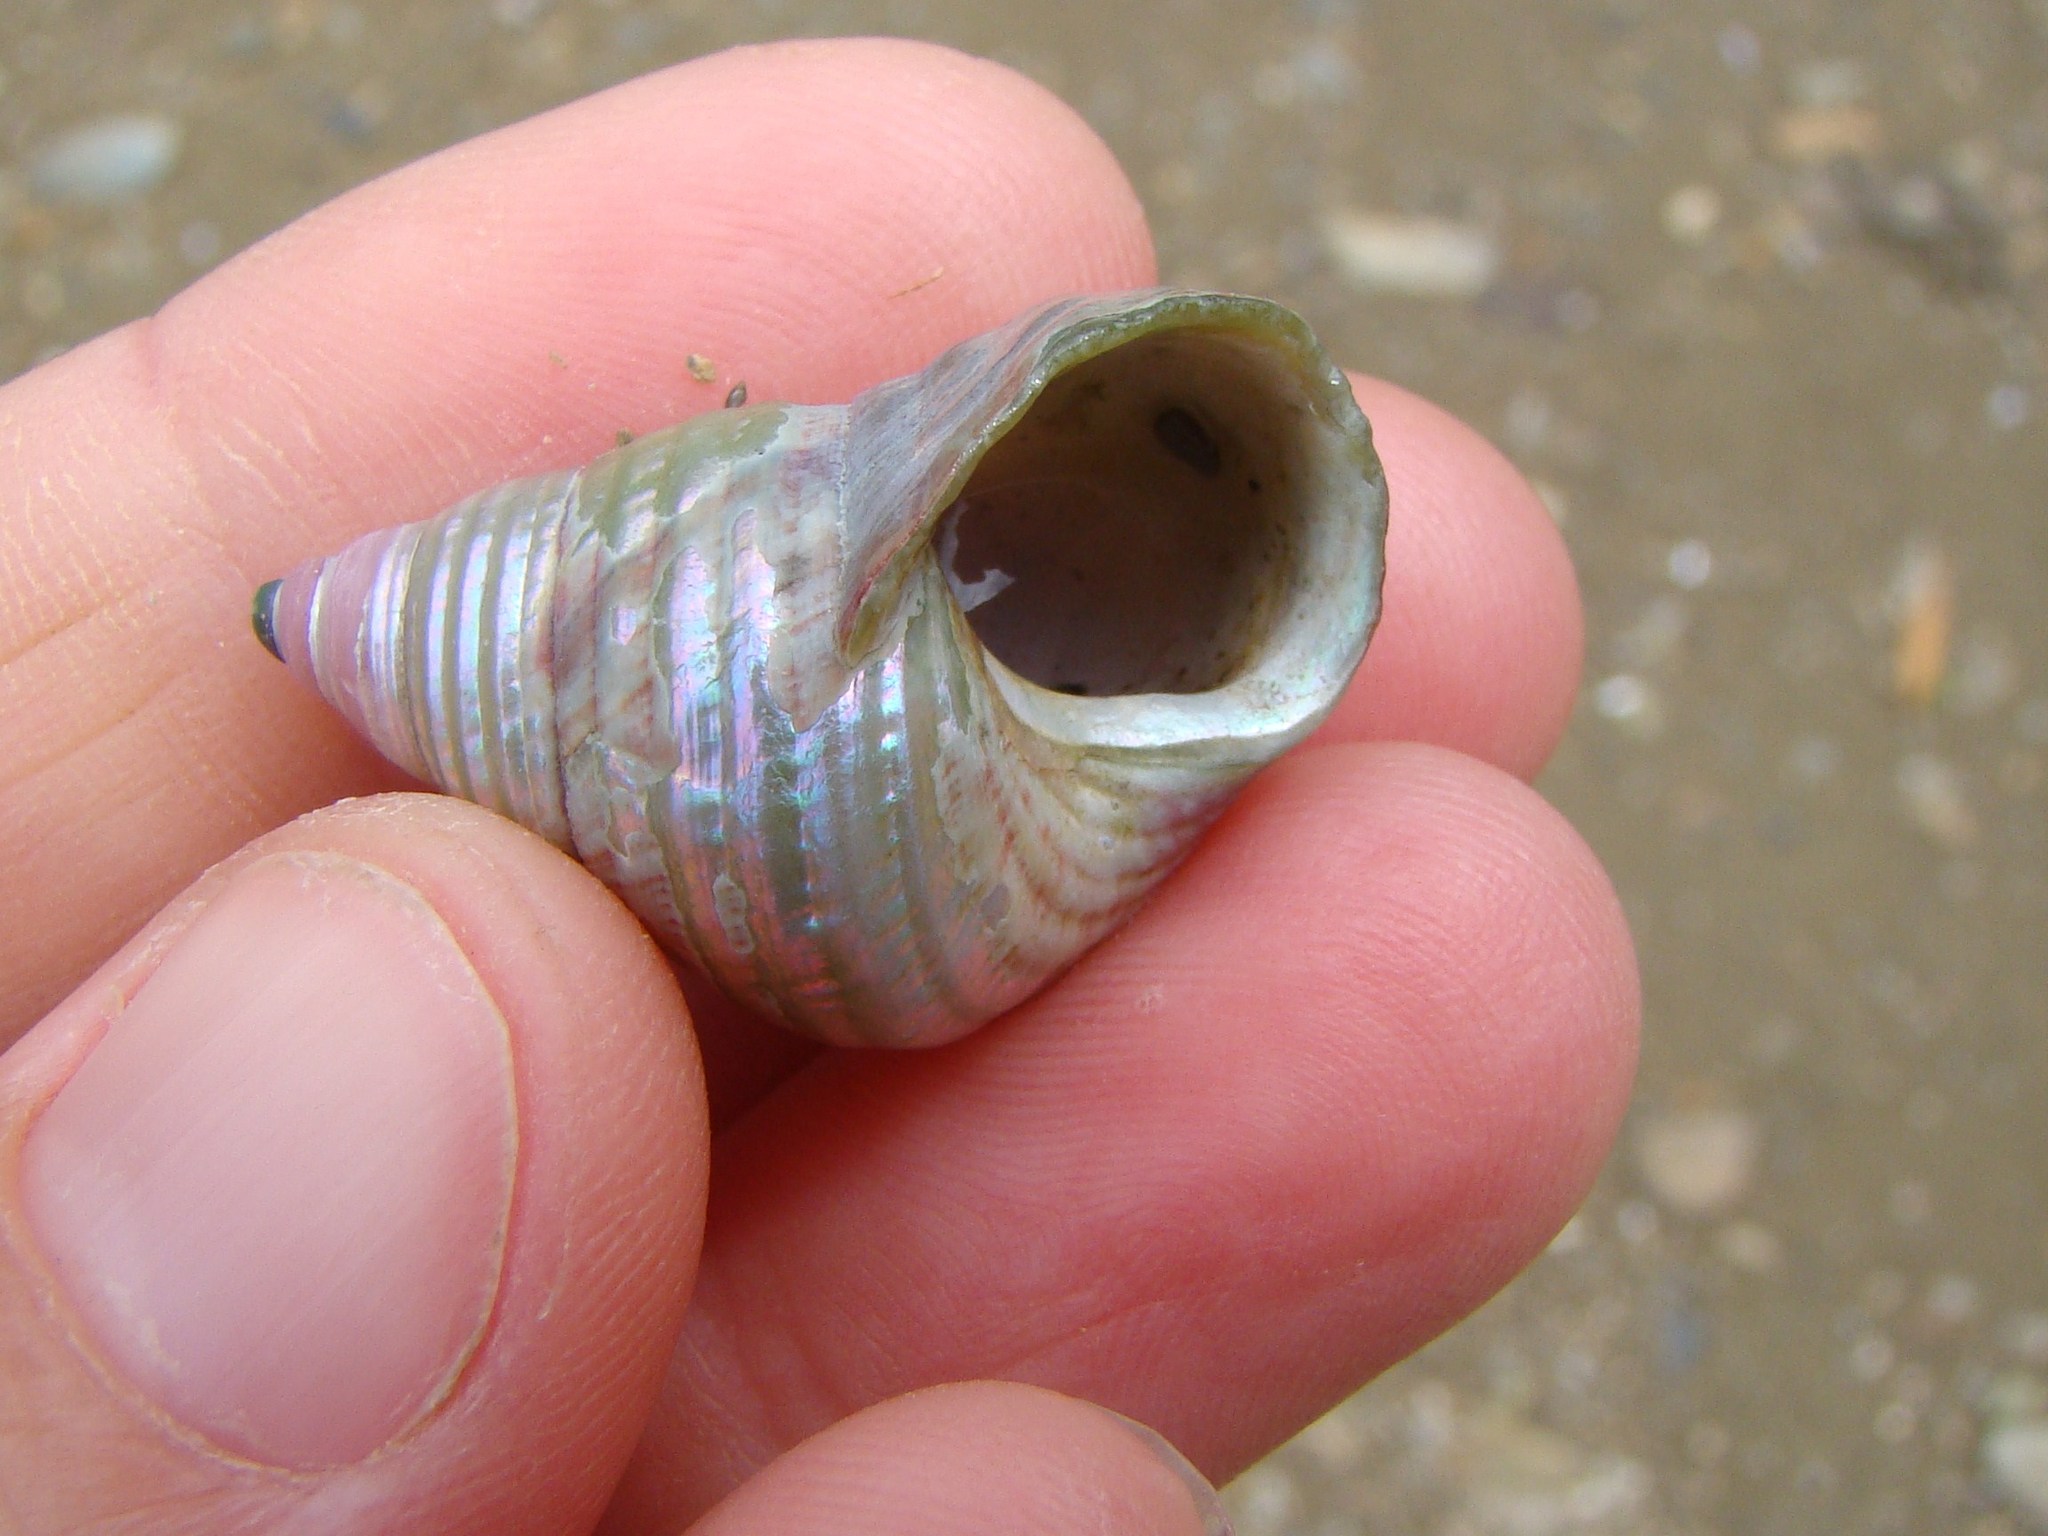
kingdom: Animalia
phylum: Mollusca
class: Gastropoda
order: Trochida
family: Trochidae
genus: Micrelenchus
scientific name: Micrelenchus purpureus
